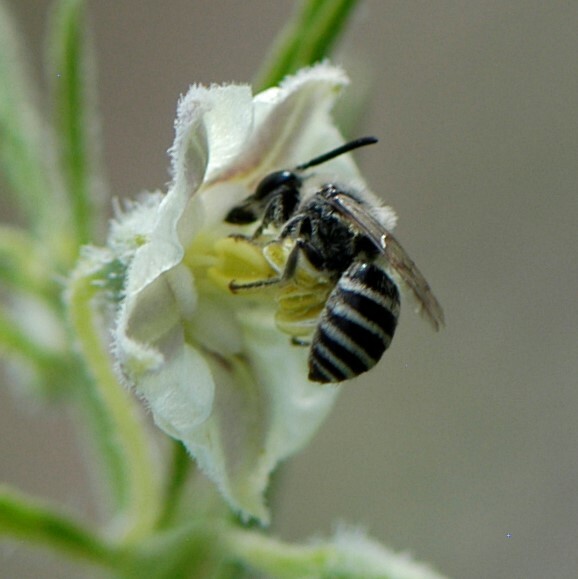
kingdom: Animalia
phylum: Arthropoda
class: Insecta
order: Hymenoptera
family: Colletidae
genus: Colletes
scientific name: Colletes
